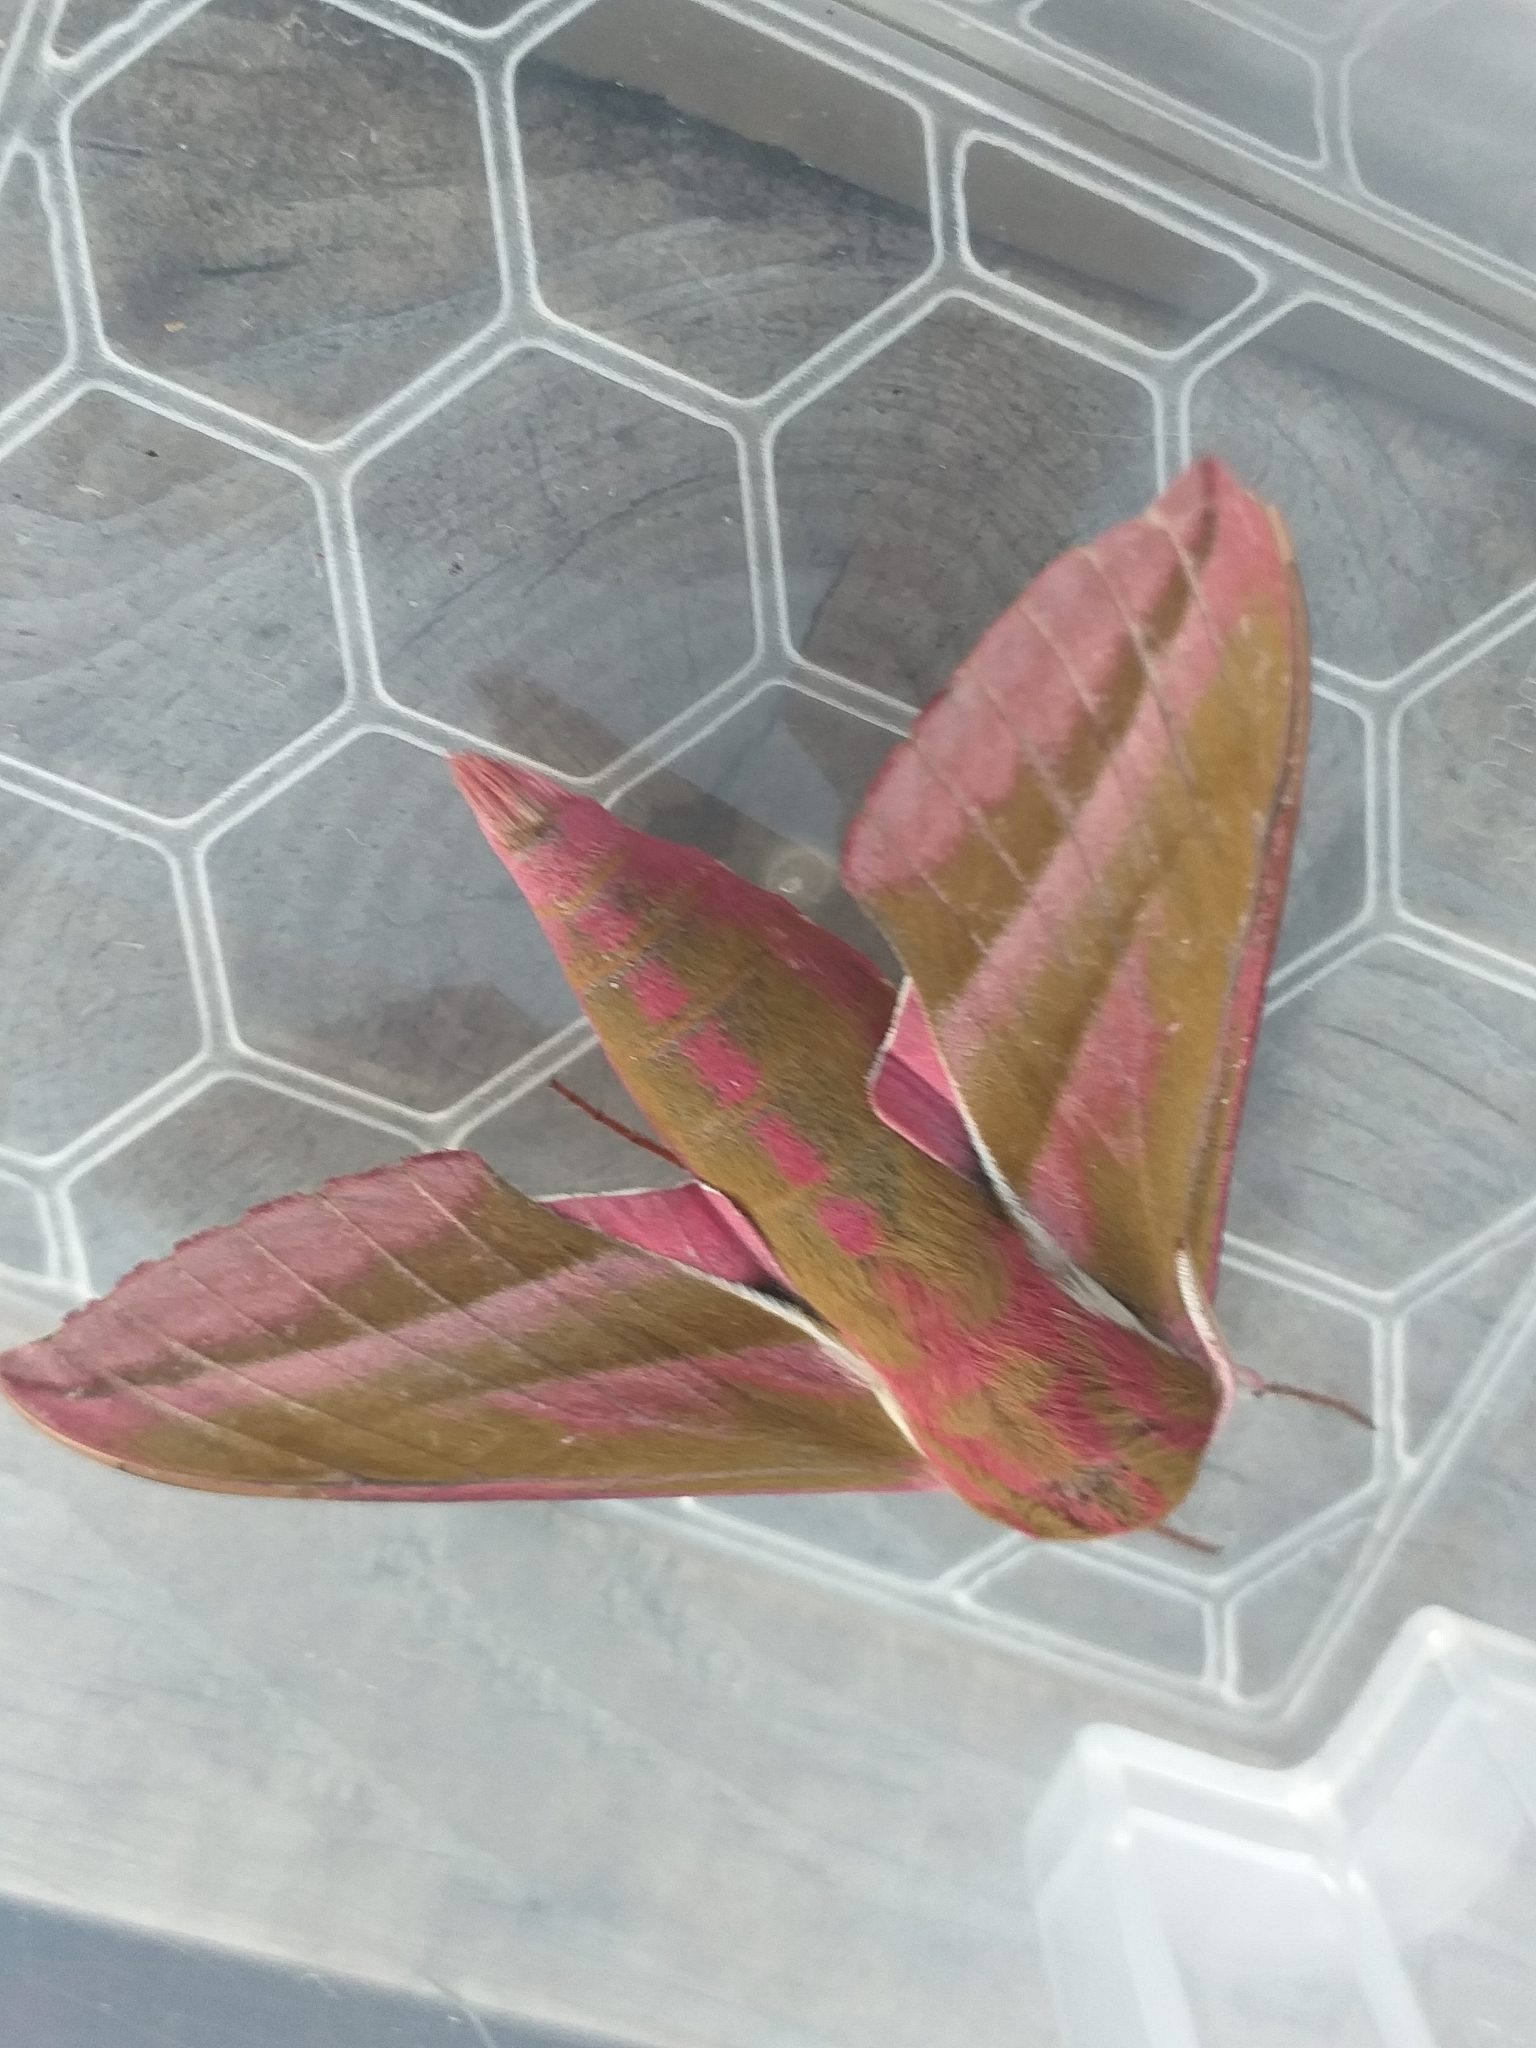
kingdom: Animalia
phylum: Arthropoda
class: Insecta
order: Lepidoptera
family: Sphingidae
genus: Deilephila
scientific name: Deilephila elpenor
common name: Elephant hawk-moth
